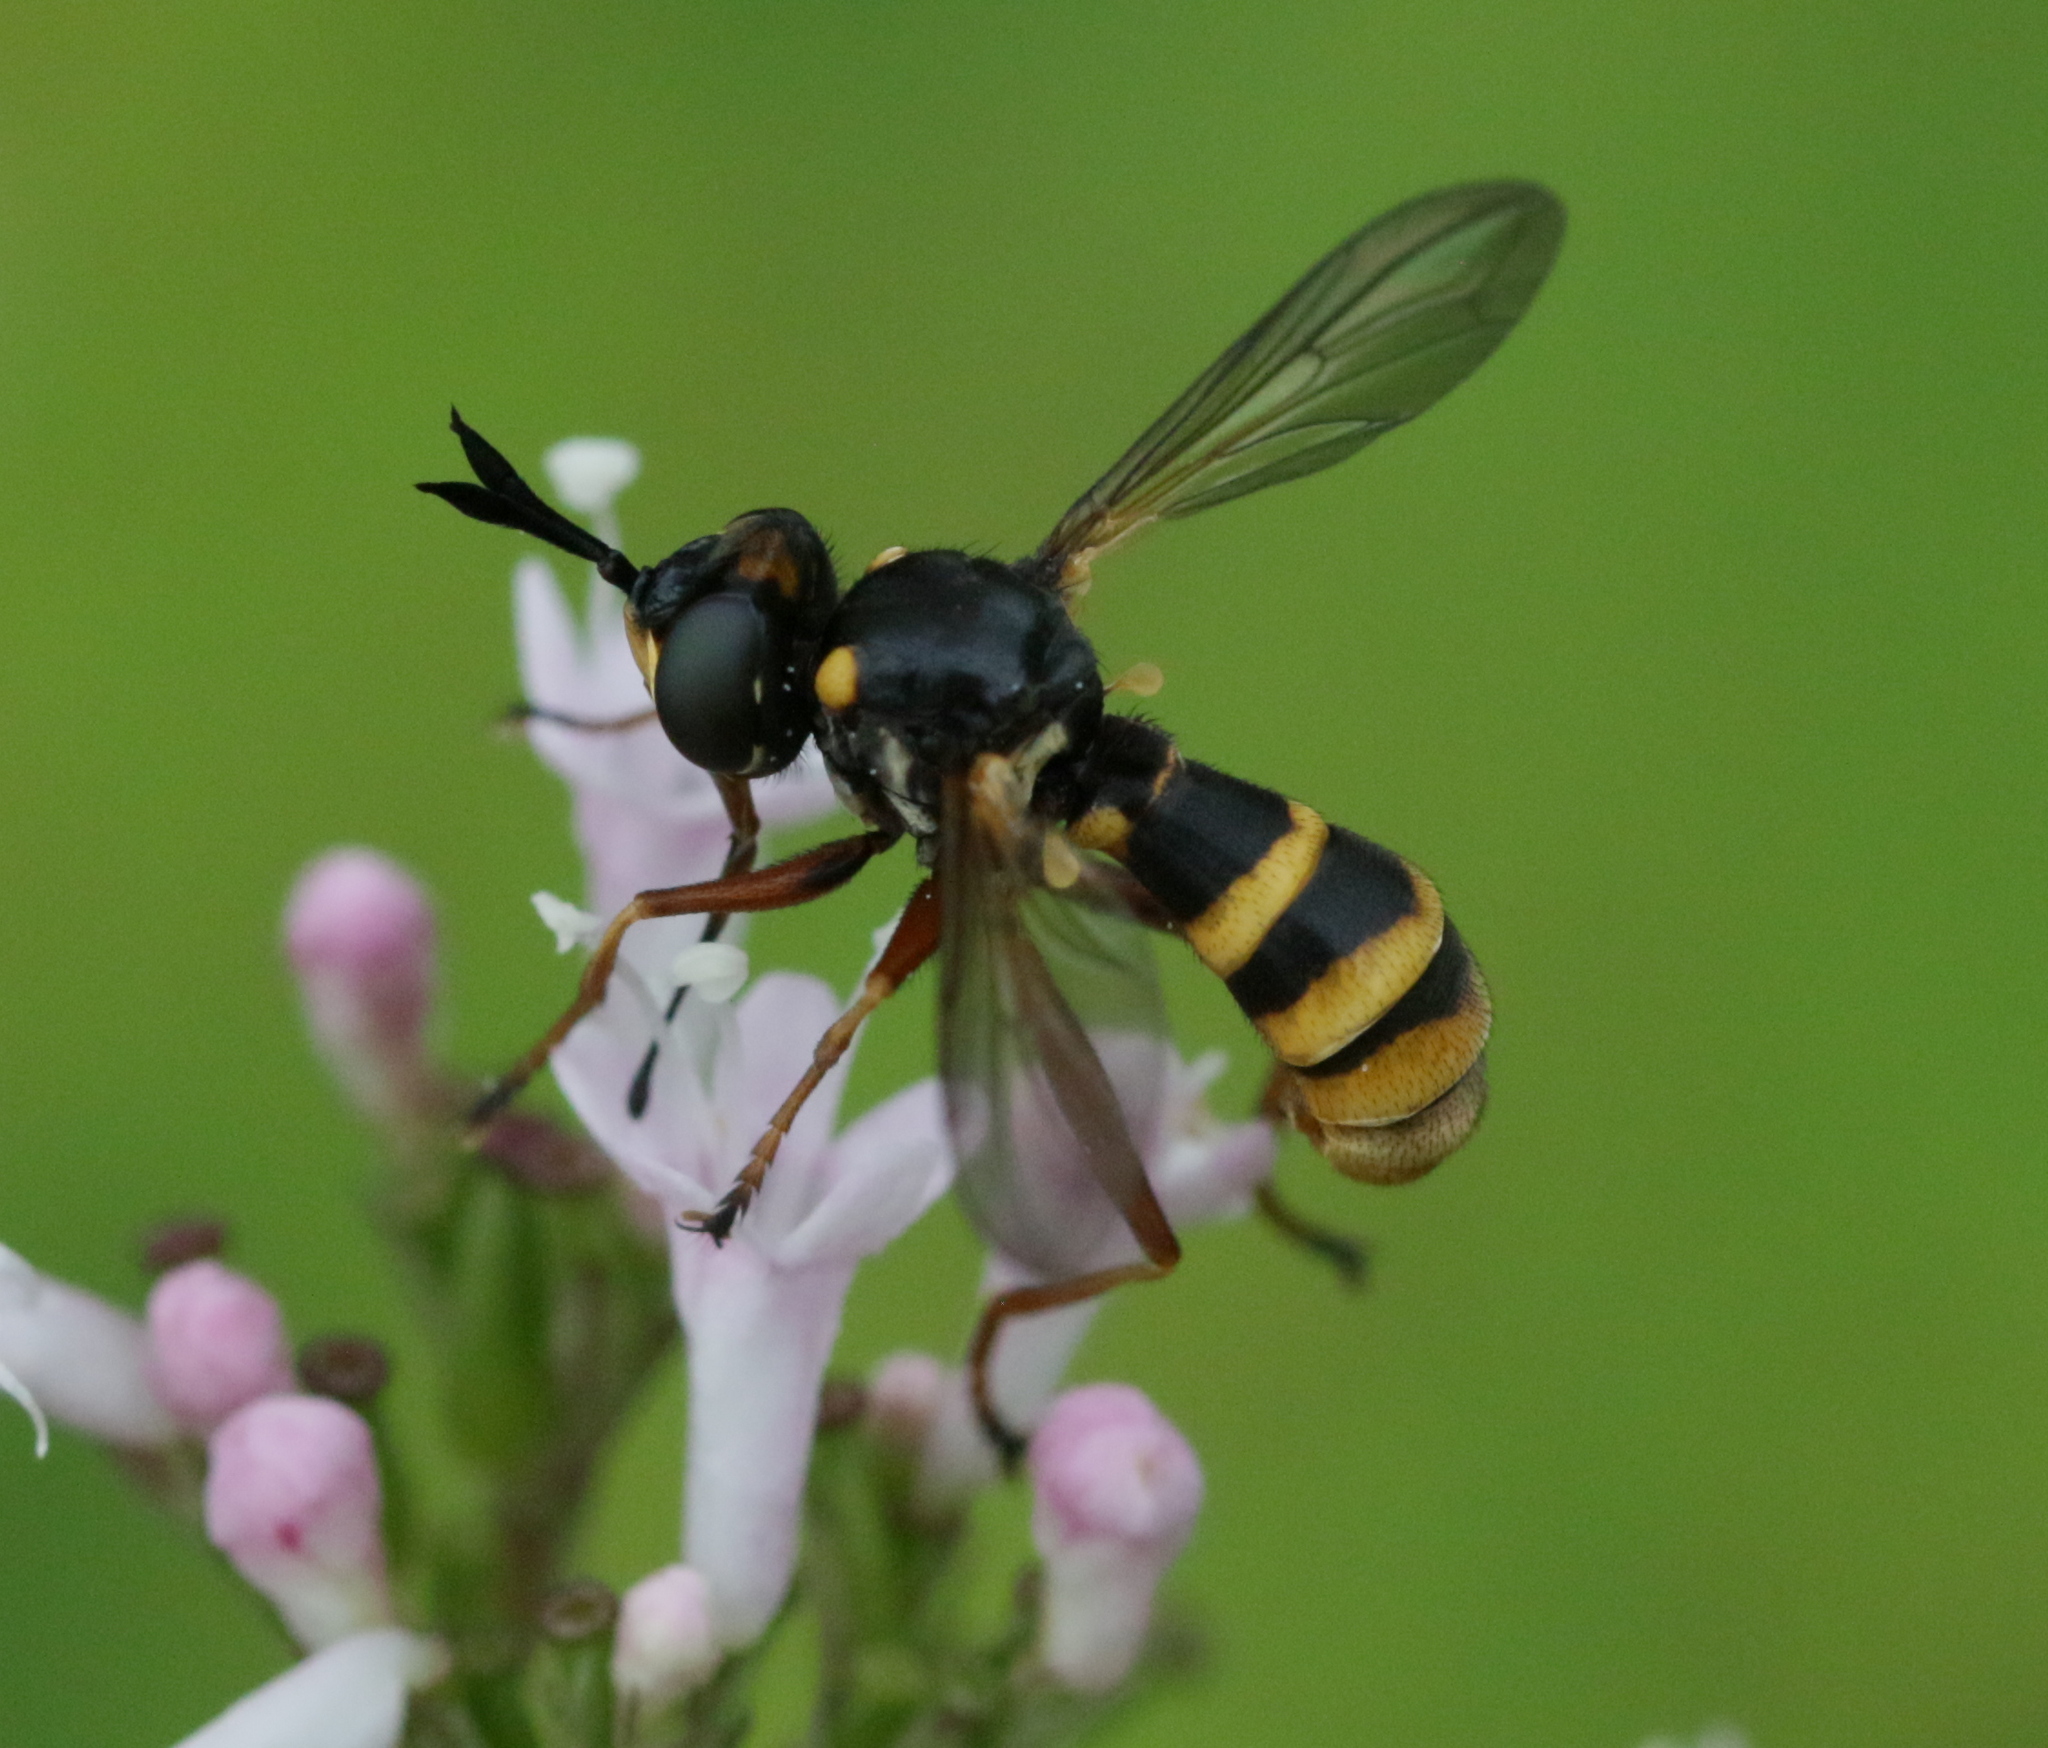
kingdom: Animalia
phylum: Arthropoda
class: Insecta
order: Diptera
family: Conopidae
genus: Conops
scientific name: Conops quadrifasciatus
